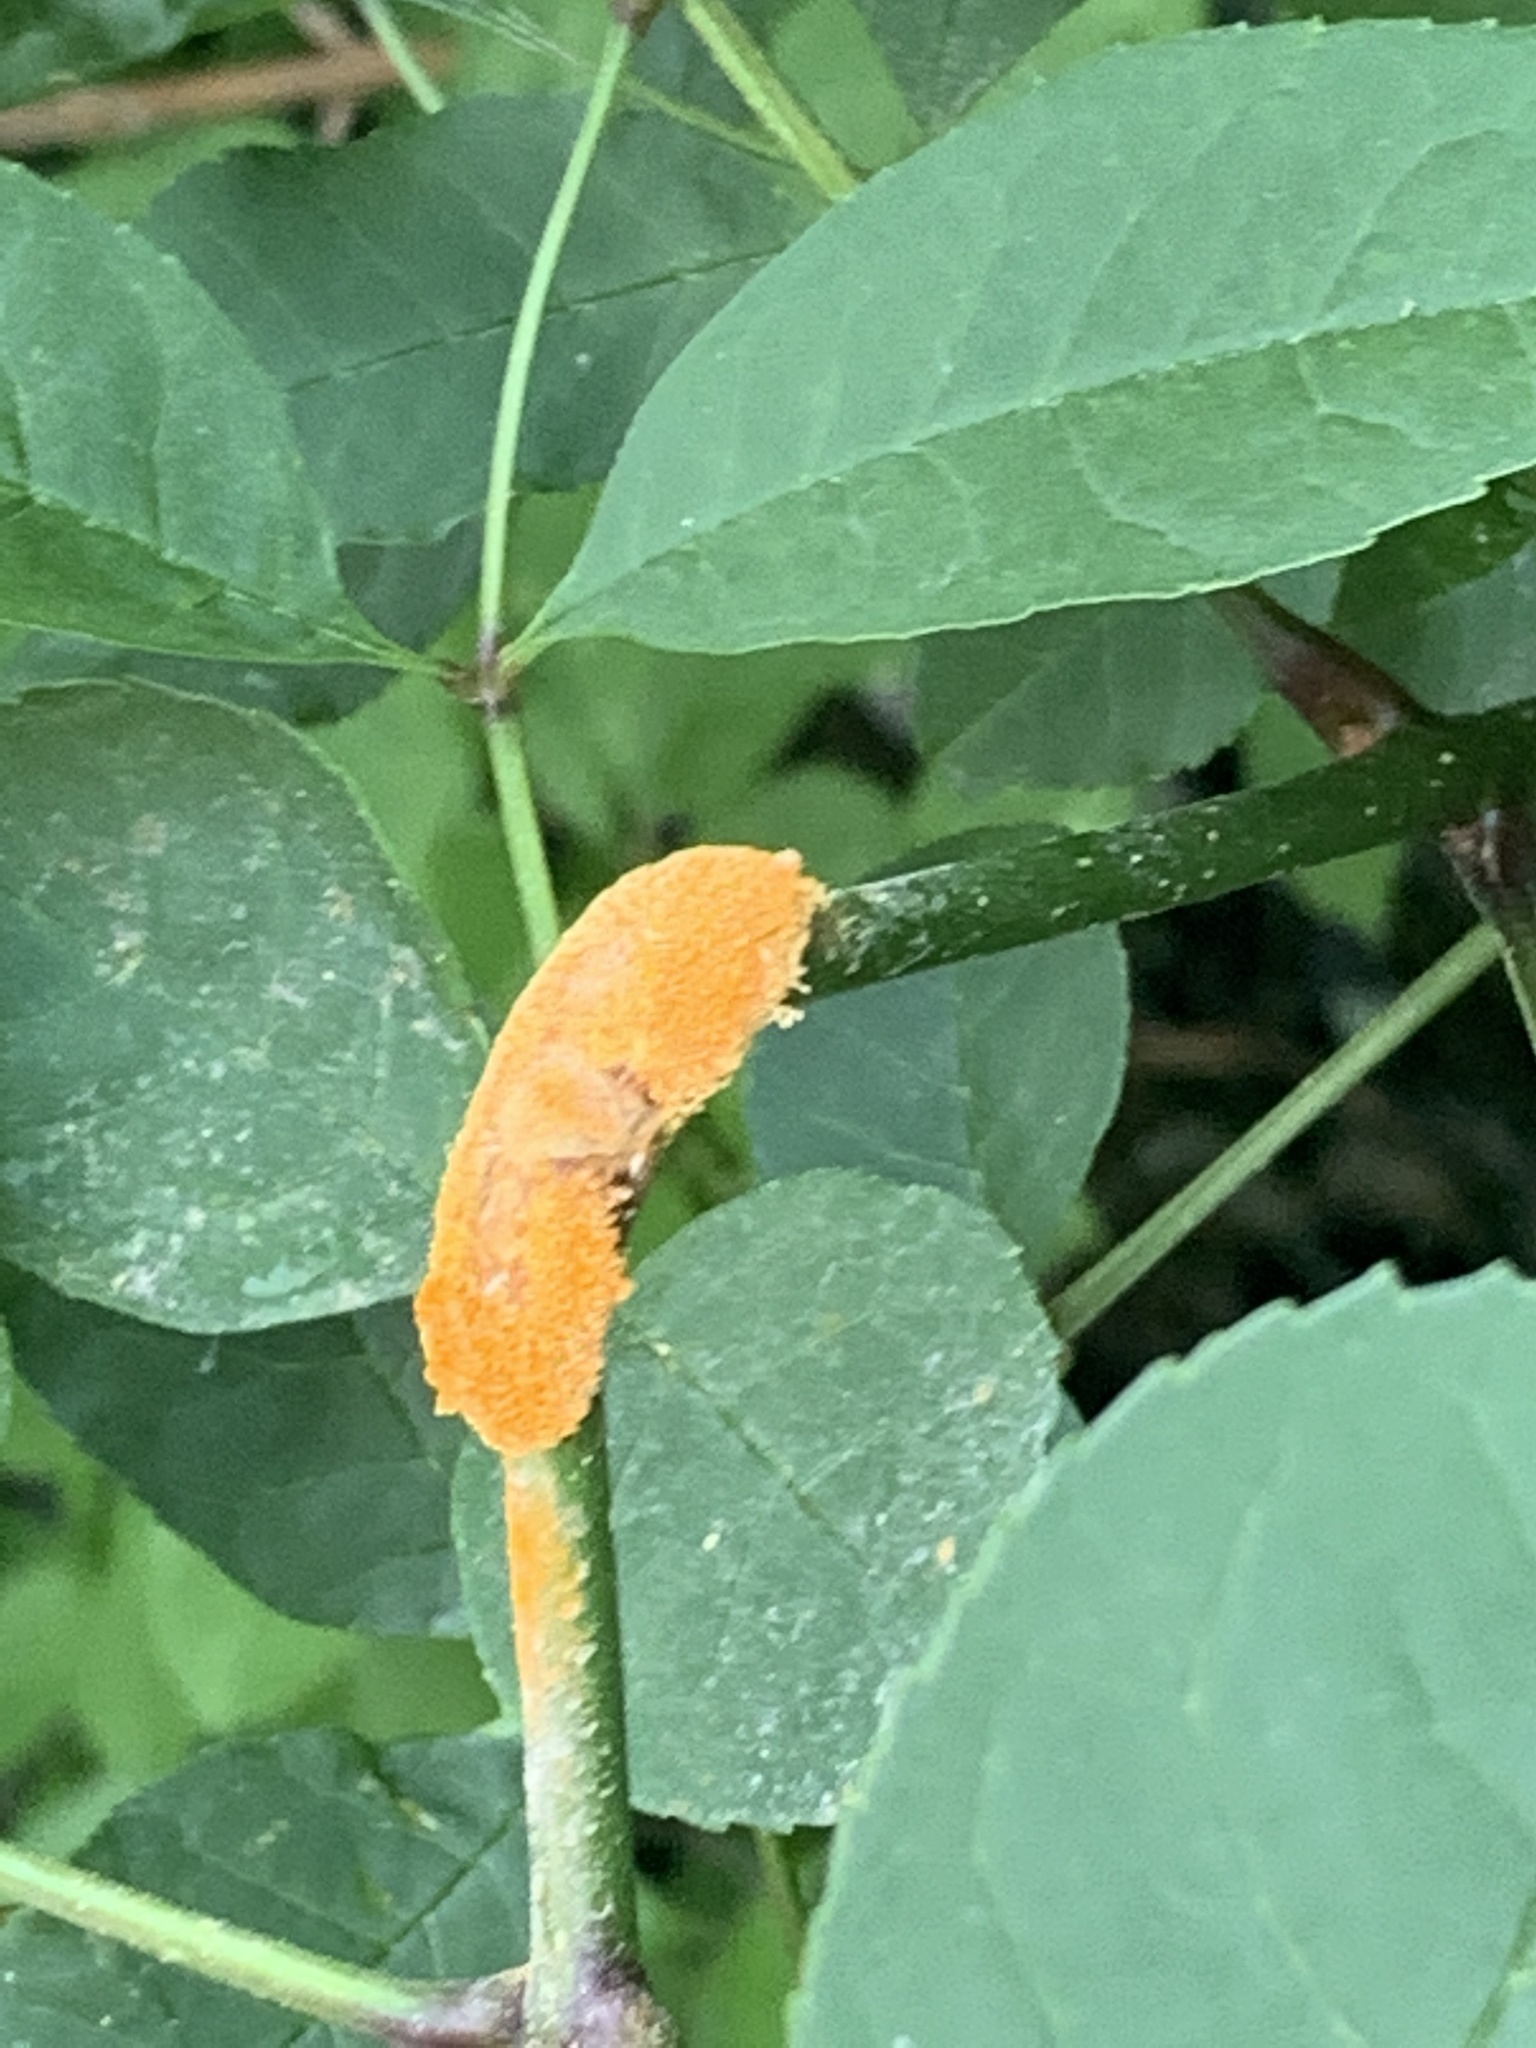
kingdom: Fungi
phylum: Basidiomycota
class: Pucciniomycetes
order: Pucciniales
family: Pucciniaceae
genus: Puccinia
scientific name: Puccinia sparganioidis
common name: Ash rust
